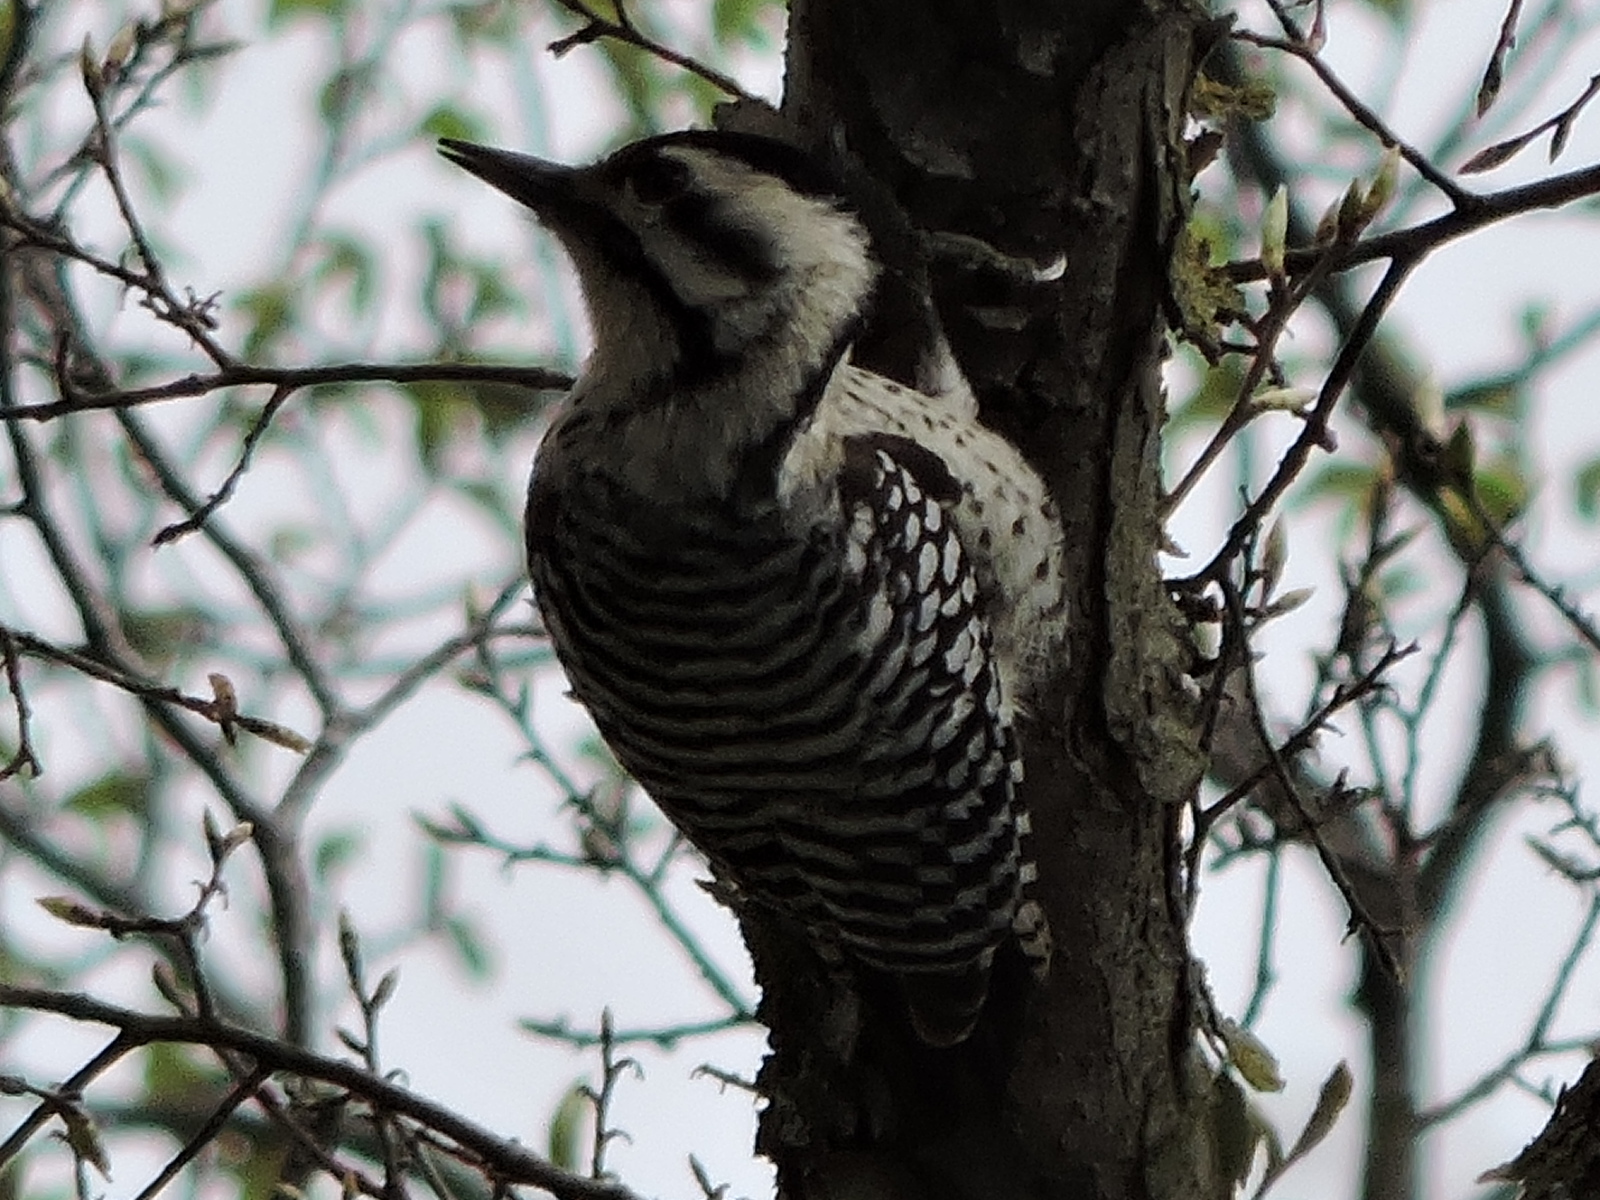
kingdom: Animalia
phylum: Chordata
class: Aves
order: Piciformes
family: Picidae
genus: Dryobates
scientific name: Dryobates scalaris
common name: Ladder-backed woodpecker
